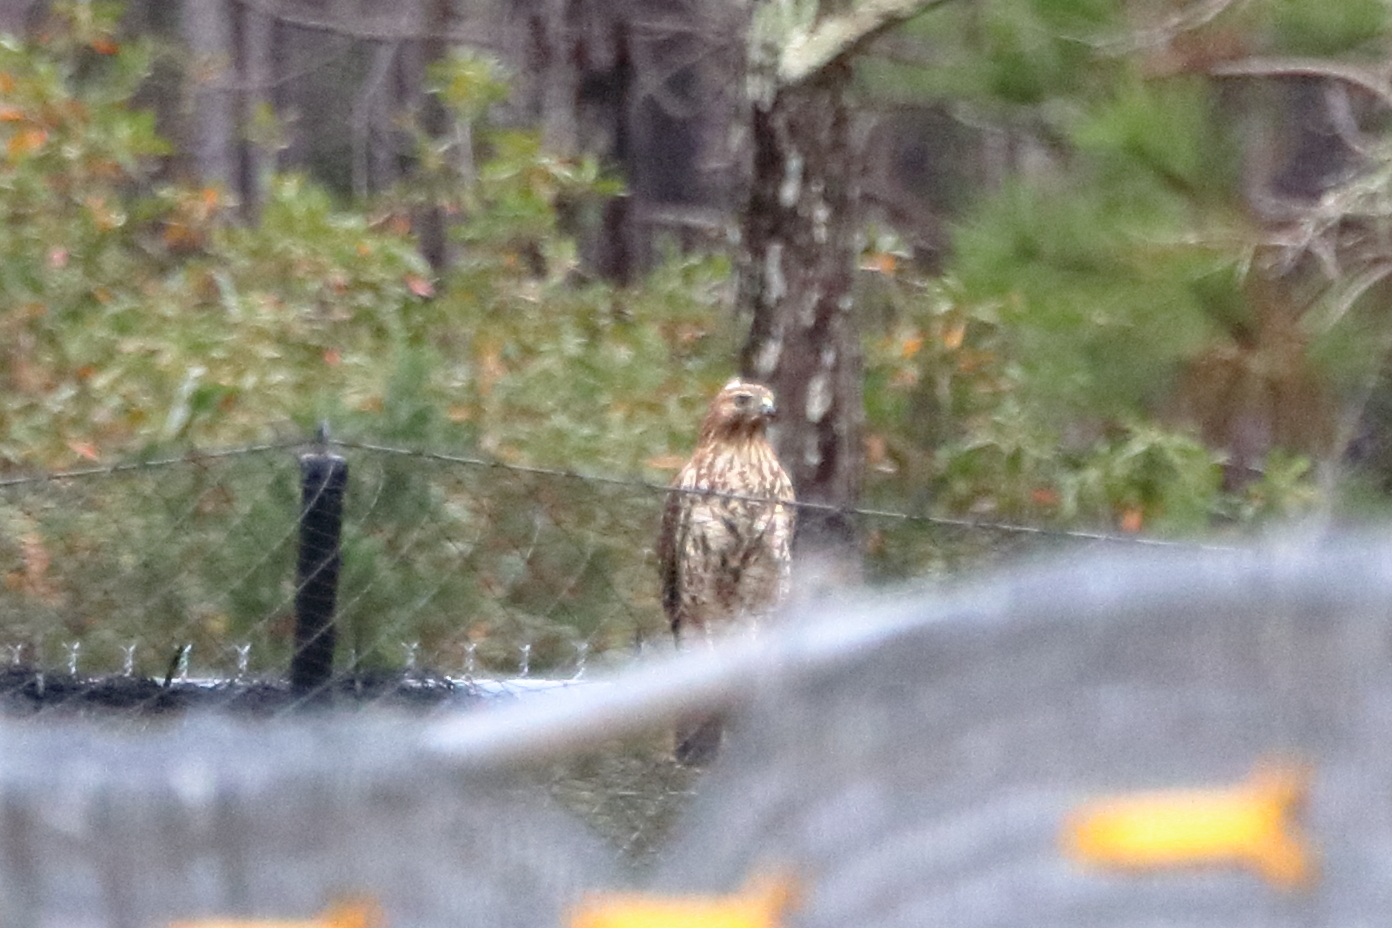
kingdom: Animalia
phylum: Chordata
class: Aves
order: Accipitriformes
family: Accipitridae
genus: Accipiter
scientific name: Accipiter cooperii
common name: Cooper's hawk
